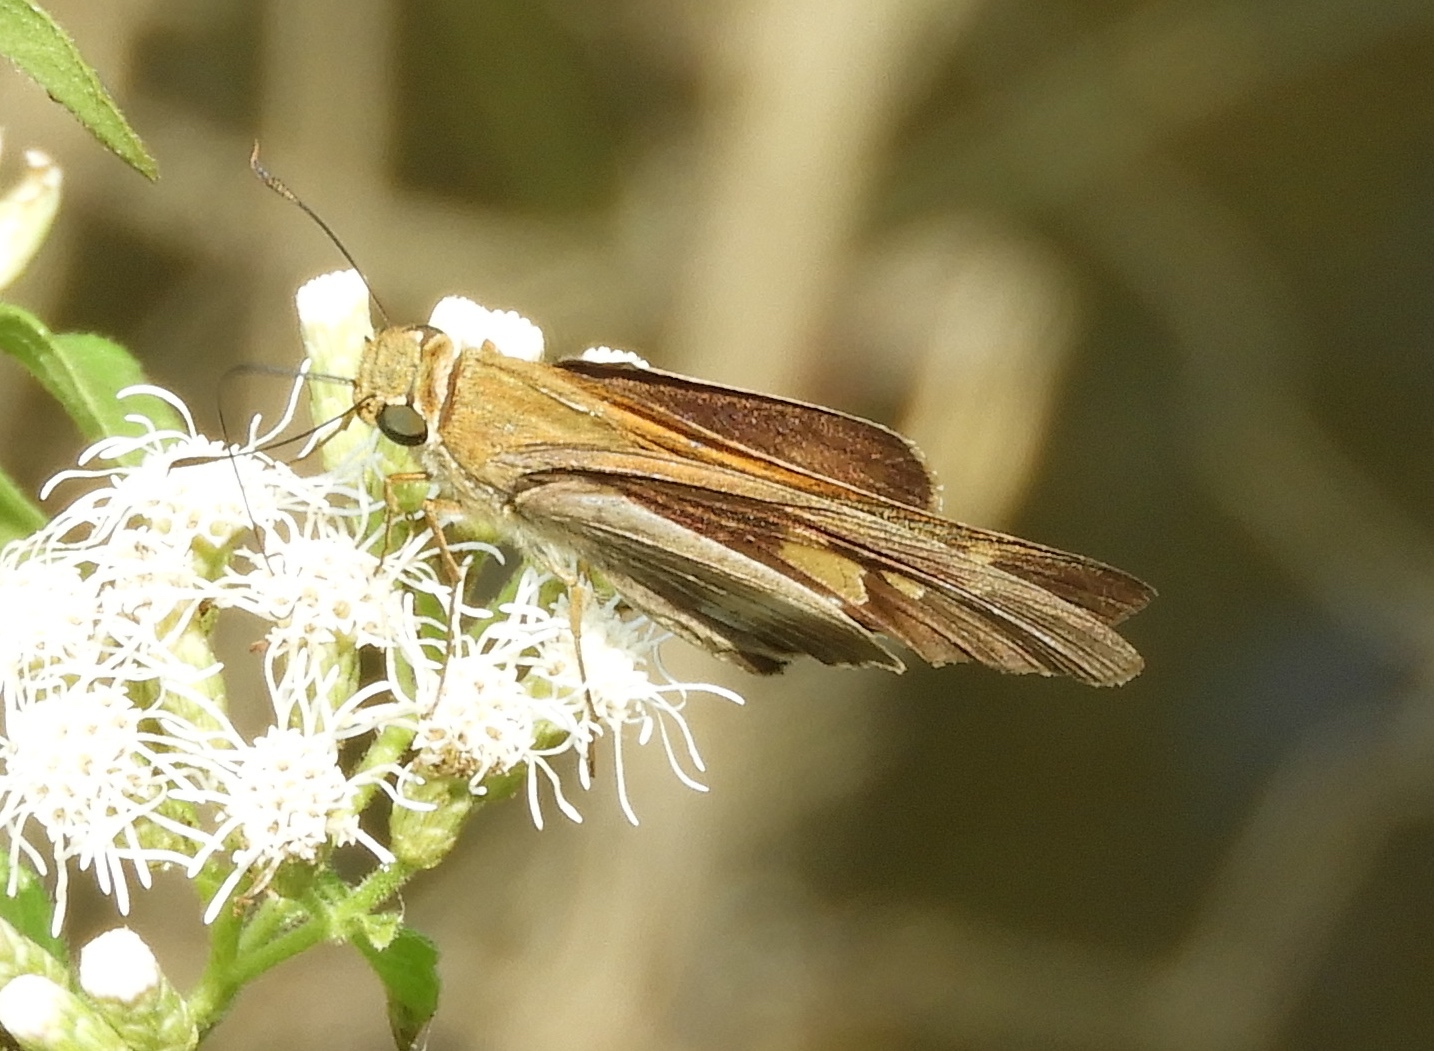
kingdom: Animalia
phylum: Arthropoda
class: Insecta
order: Lepidoptera
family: Hesperiidae
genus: Lerodea
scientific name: Lerodea
